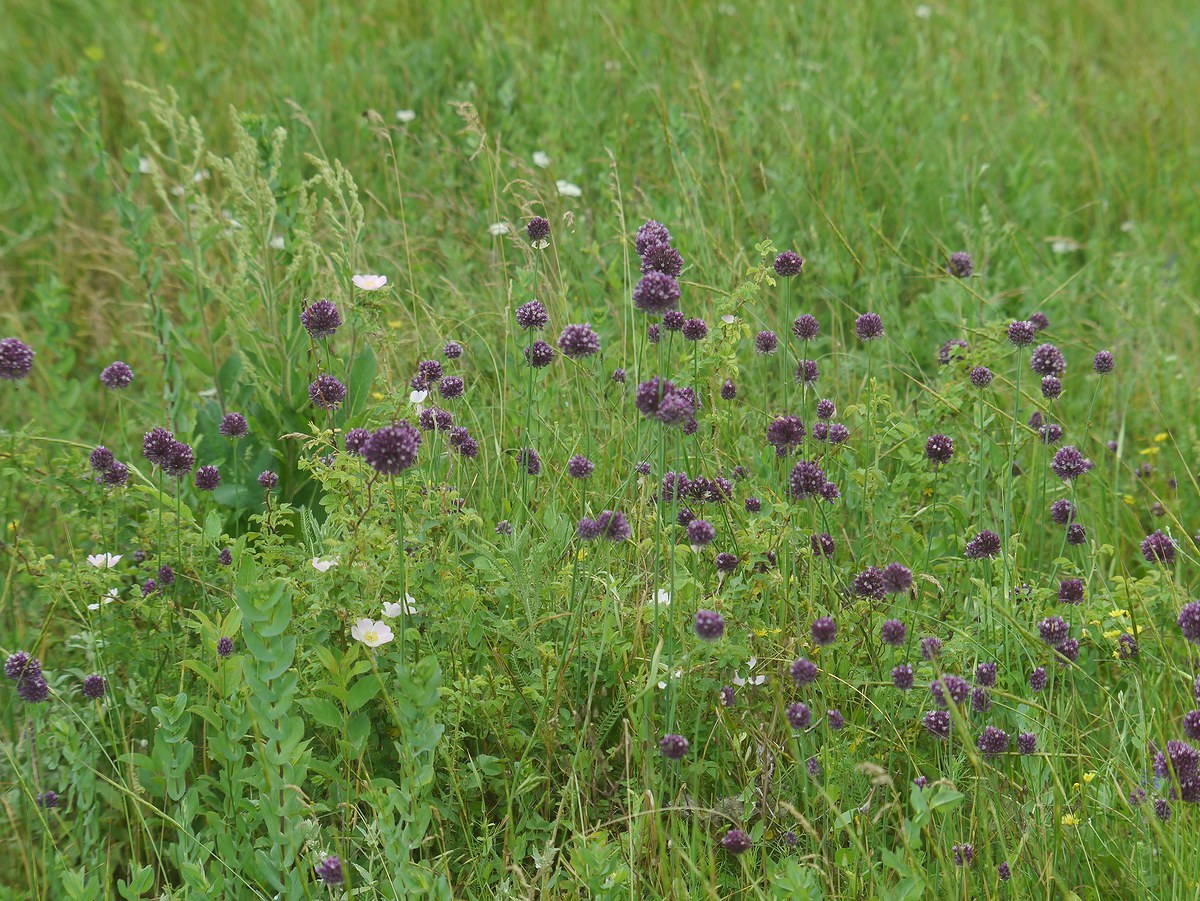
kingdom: Plantae
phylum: Tracheophyta
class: Liliopsida
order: Asparagales
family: Amaryllidaceae
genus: Allium
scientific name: Allium rotundum
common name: Sand leek
